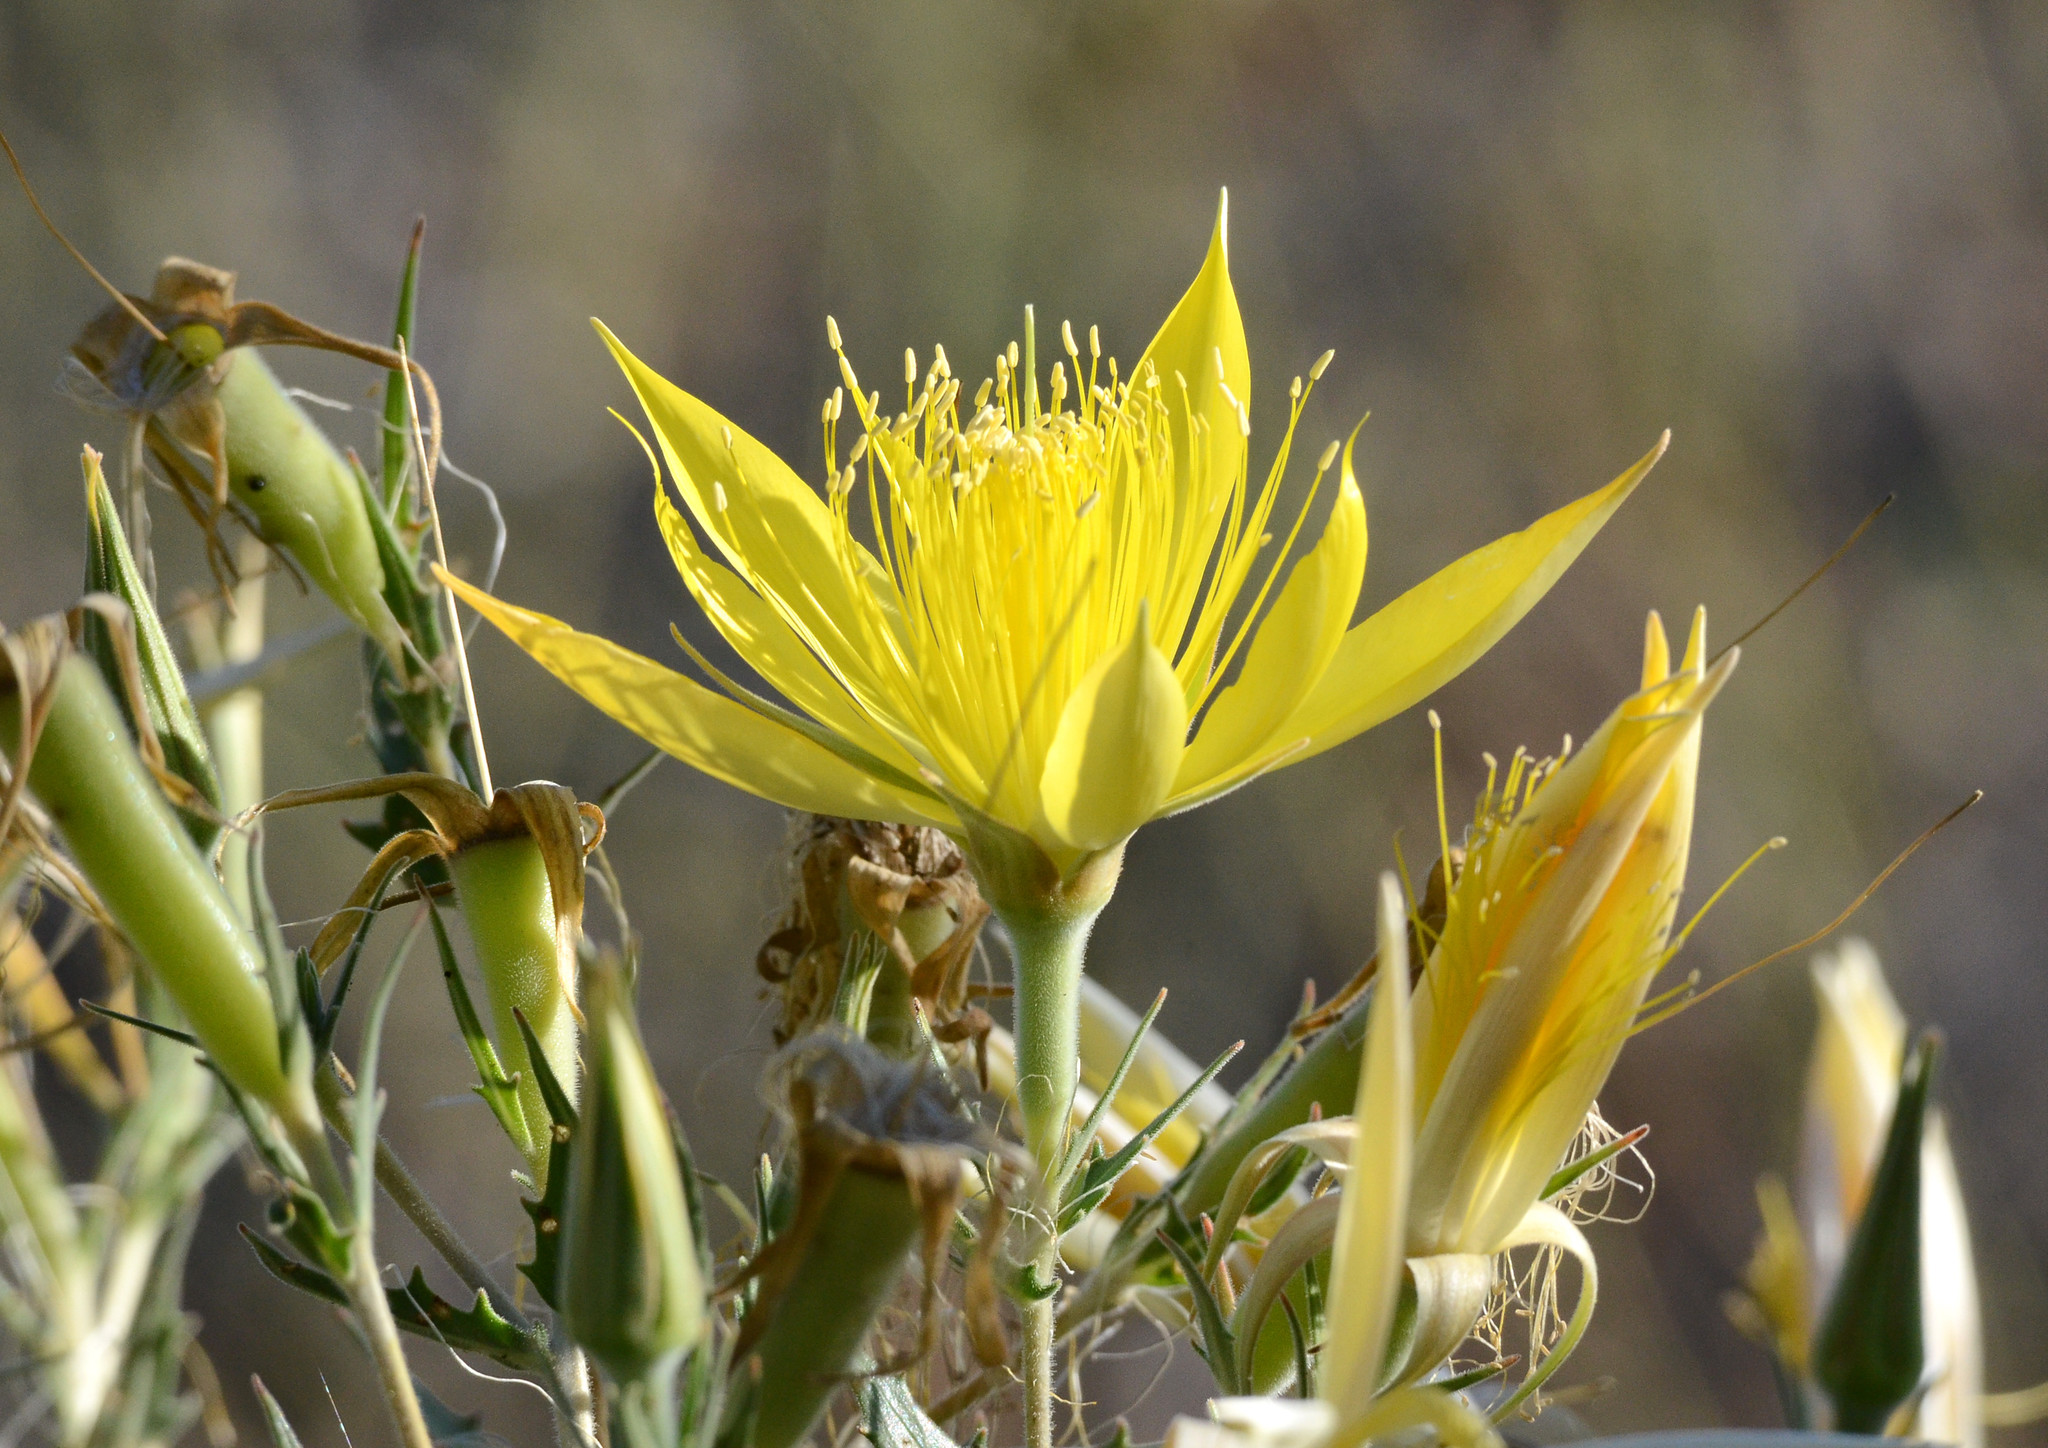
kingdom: Plantae
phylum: Tracheophyta
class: Magnoliopsida
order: Cornales
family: Loasaceae
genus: Mentzelia
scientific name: Mentzelia laevicaulis
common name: Smooth-stem blazingstar
